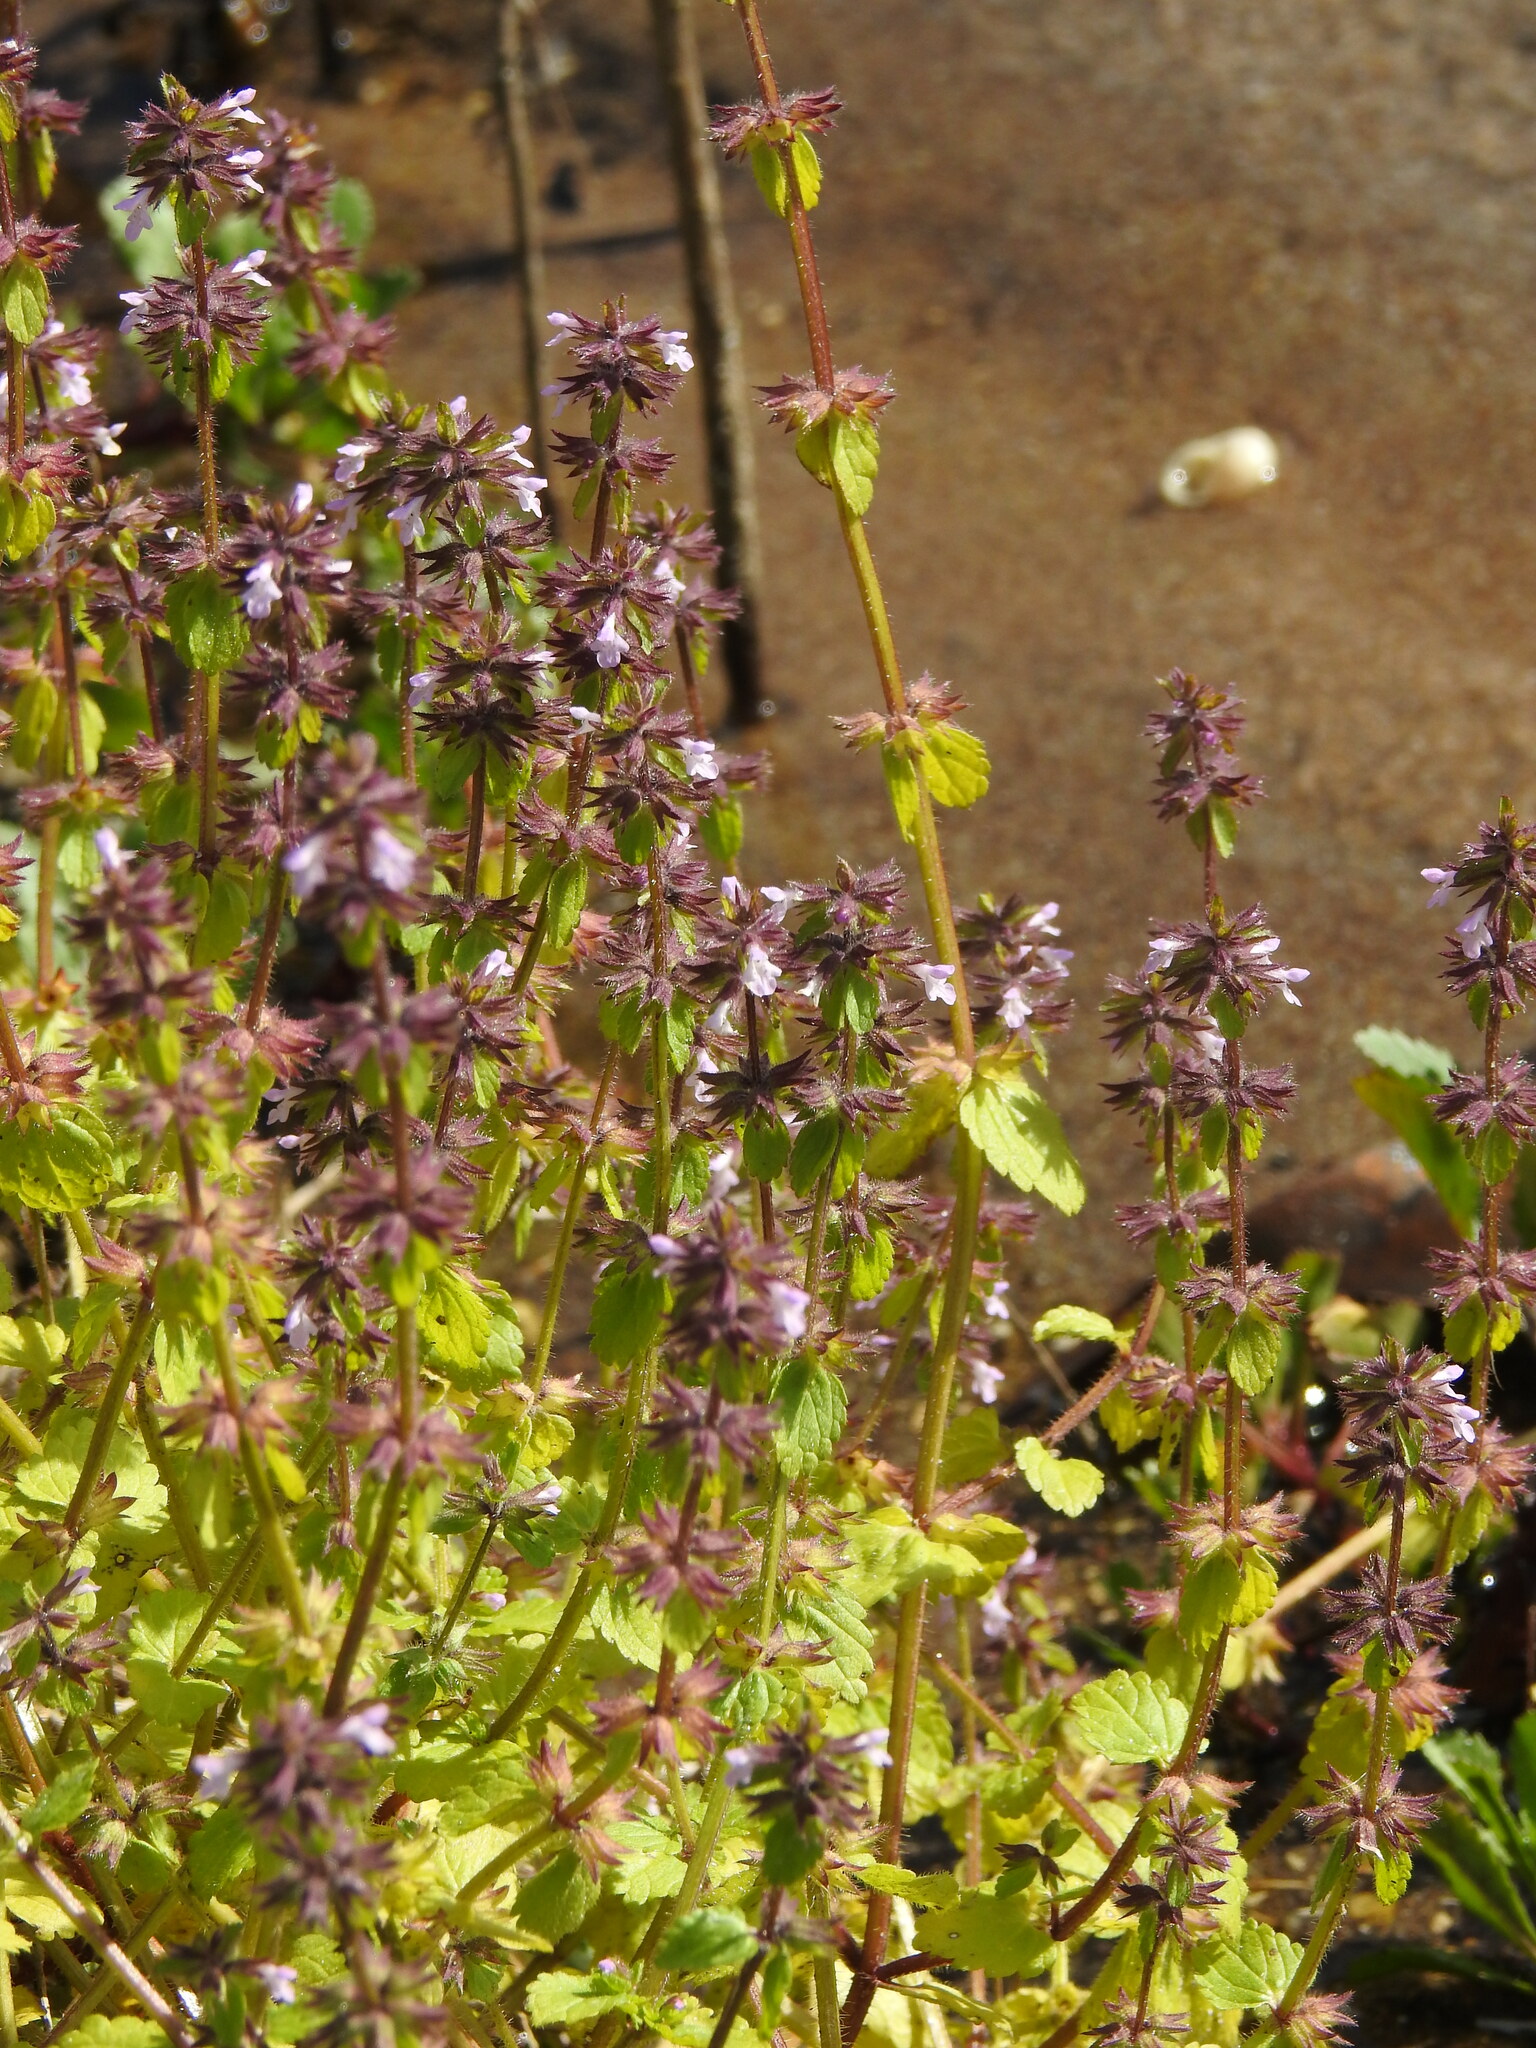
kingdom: Plantae
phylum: Tracheophyta
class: Magnoliopsida
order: Lamiales
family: Lamiaceae
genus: Stachys
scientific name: Stachys arvensis
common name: Field woundwort
